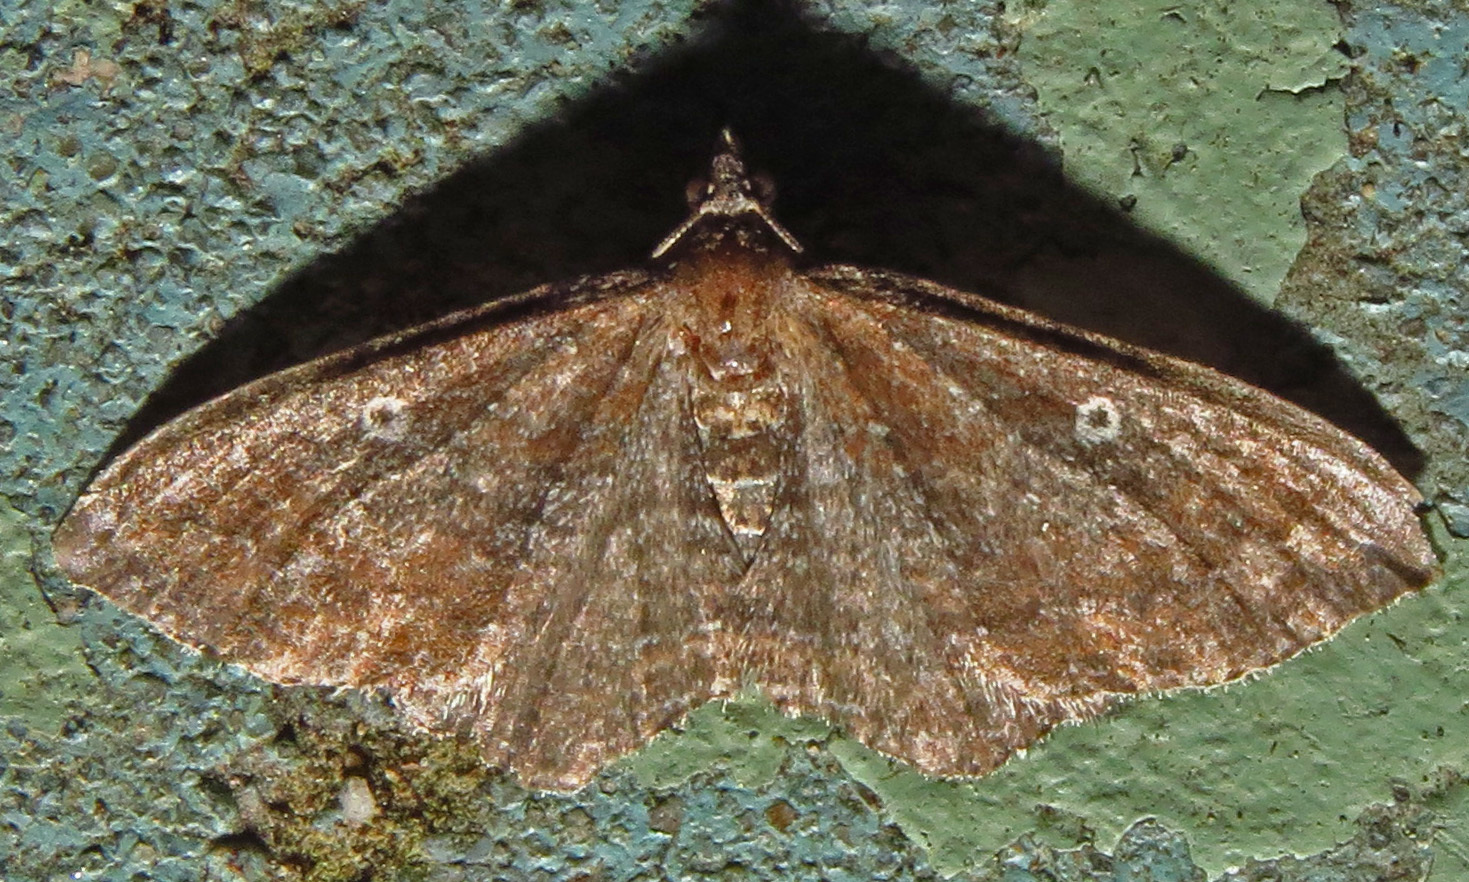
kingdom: Animalia
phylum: Arthropoda
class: Insecta
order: Lepidoptera
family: Geometridae
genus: Orthonama
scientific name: Orthonama obstipata
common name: The gem
